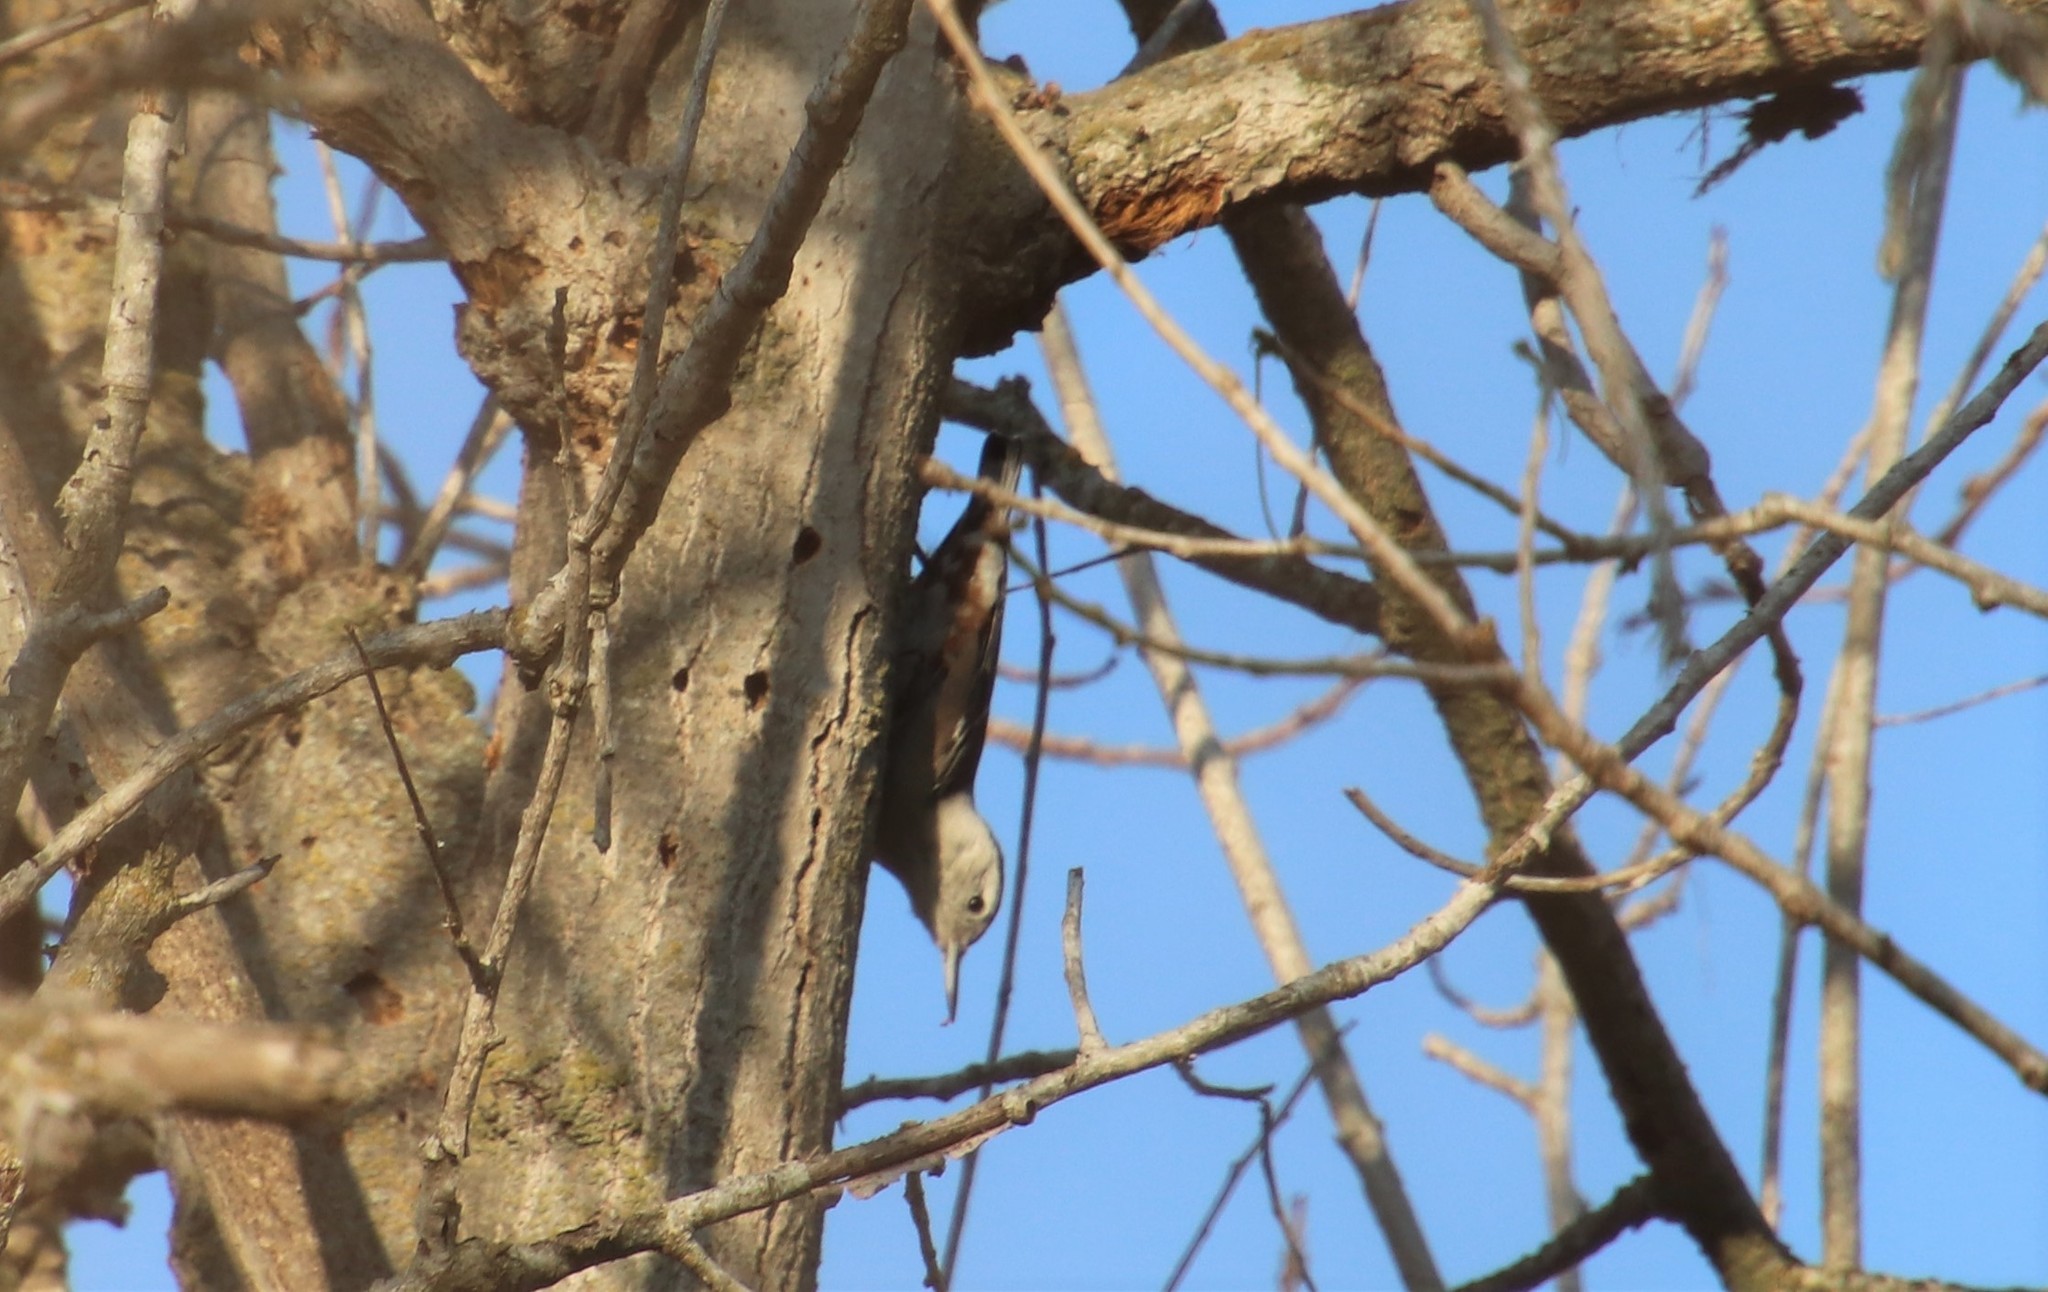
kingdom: Animalia
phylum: Chordata
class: Aves
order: Passeriformes
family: Sittidae
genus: Sitta
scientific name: Sitta carolinensis
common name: White-breasted nuthatch
